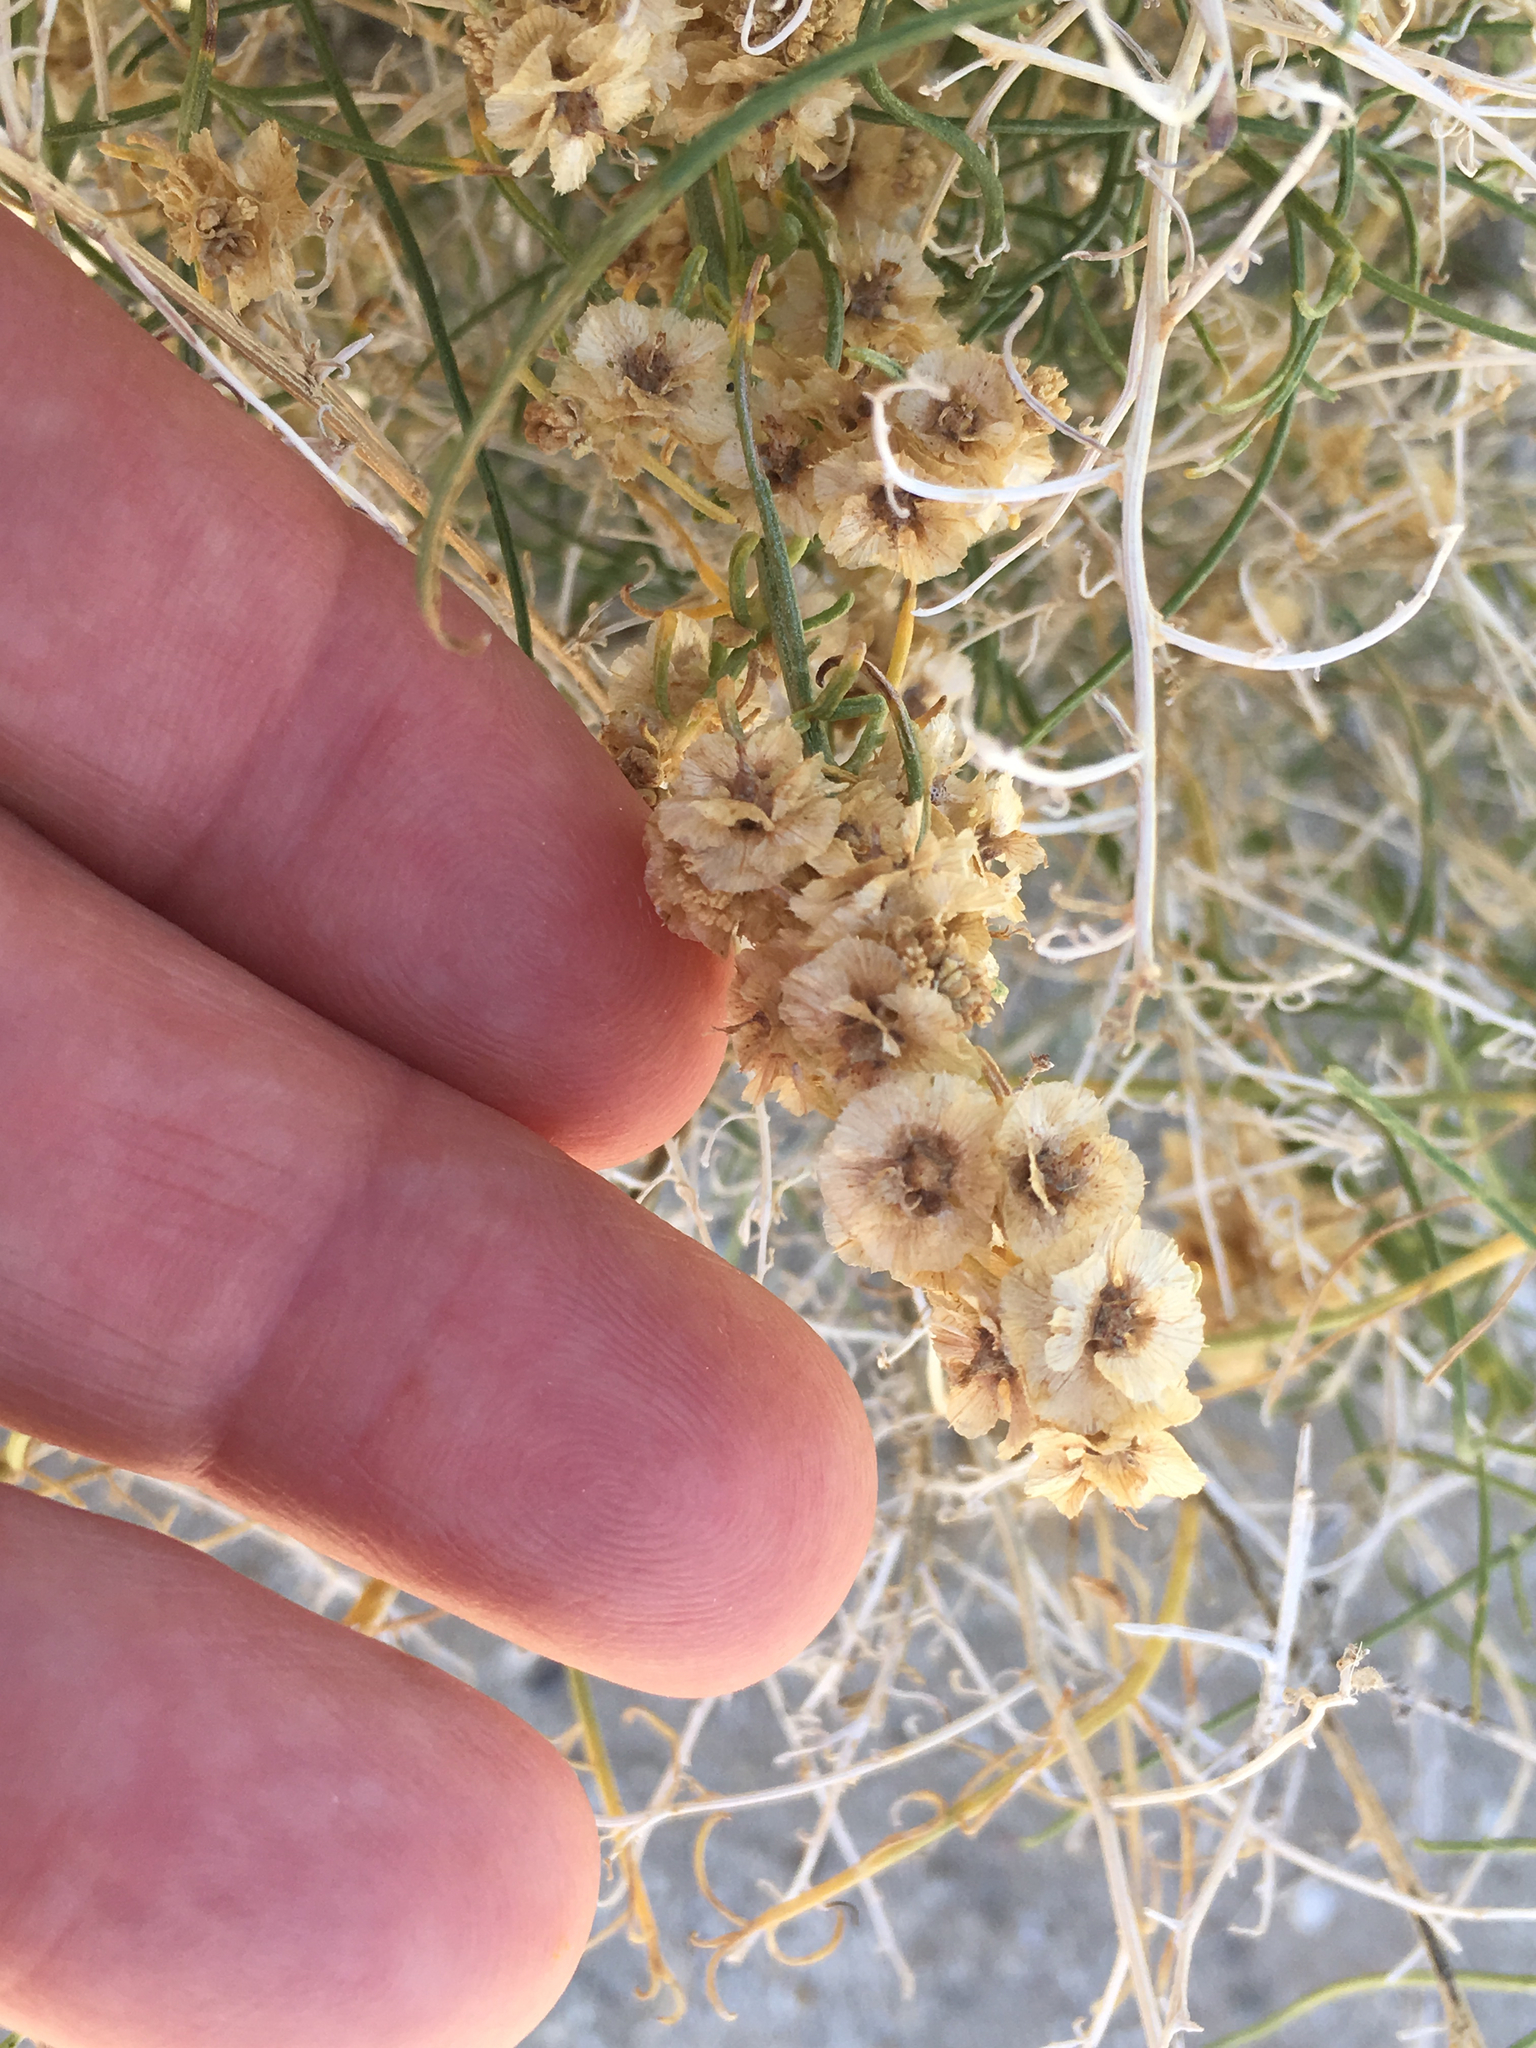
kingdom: Plantae
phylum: Tracheophyta
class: Magnoliopsida
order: Asterales
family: Asteraceae
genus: Ambrosia
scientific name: Ambrosia salsola
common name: Burrobrush
